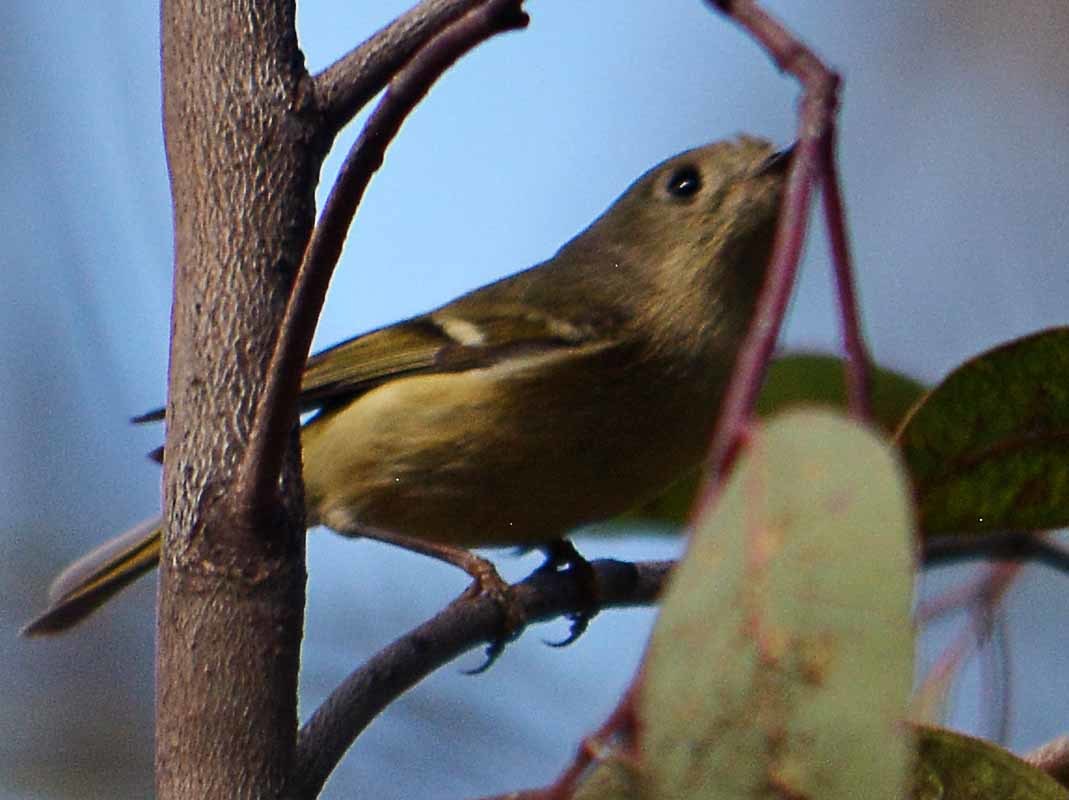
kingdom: Animalia
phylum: Chordata
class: Aves
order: Passeriformes
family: Regulidae
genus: Regulus
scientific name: Regulus calendula
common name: Ruby-crowned kinglet
